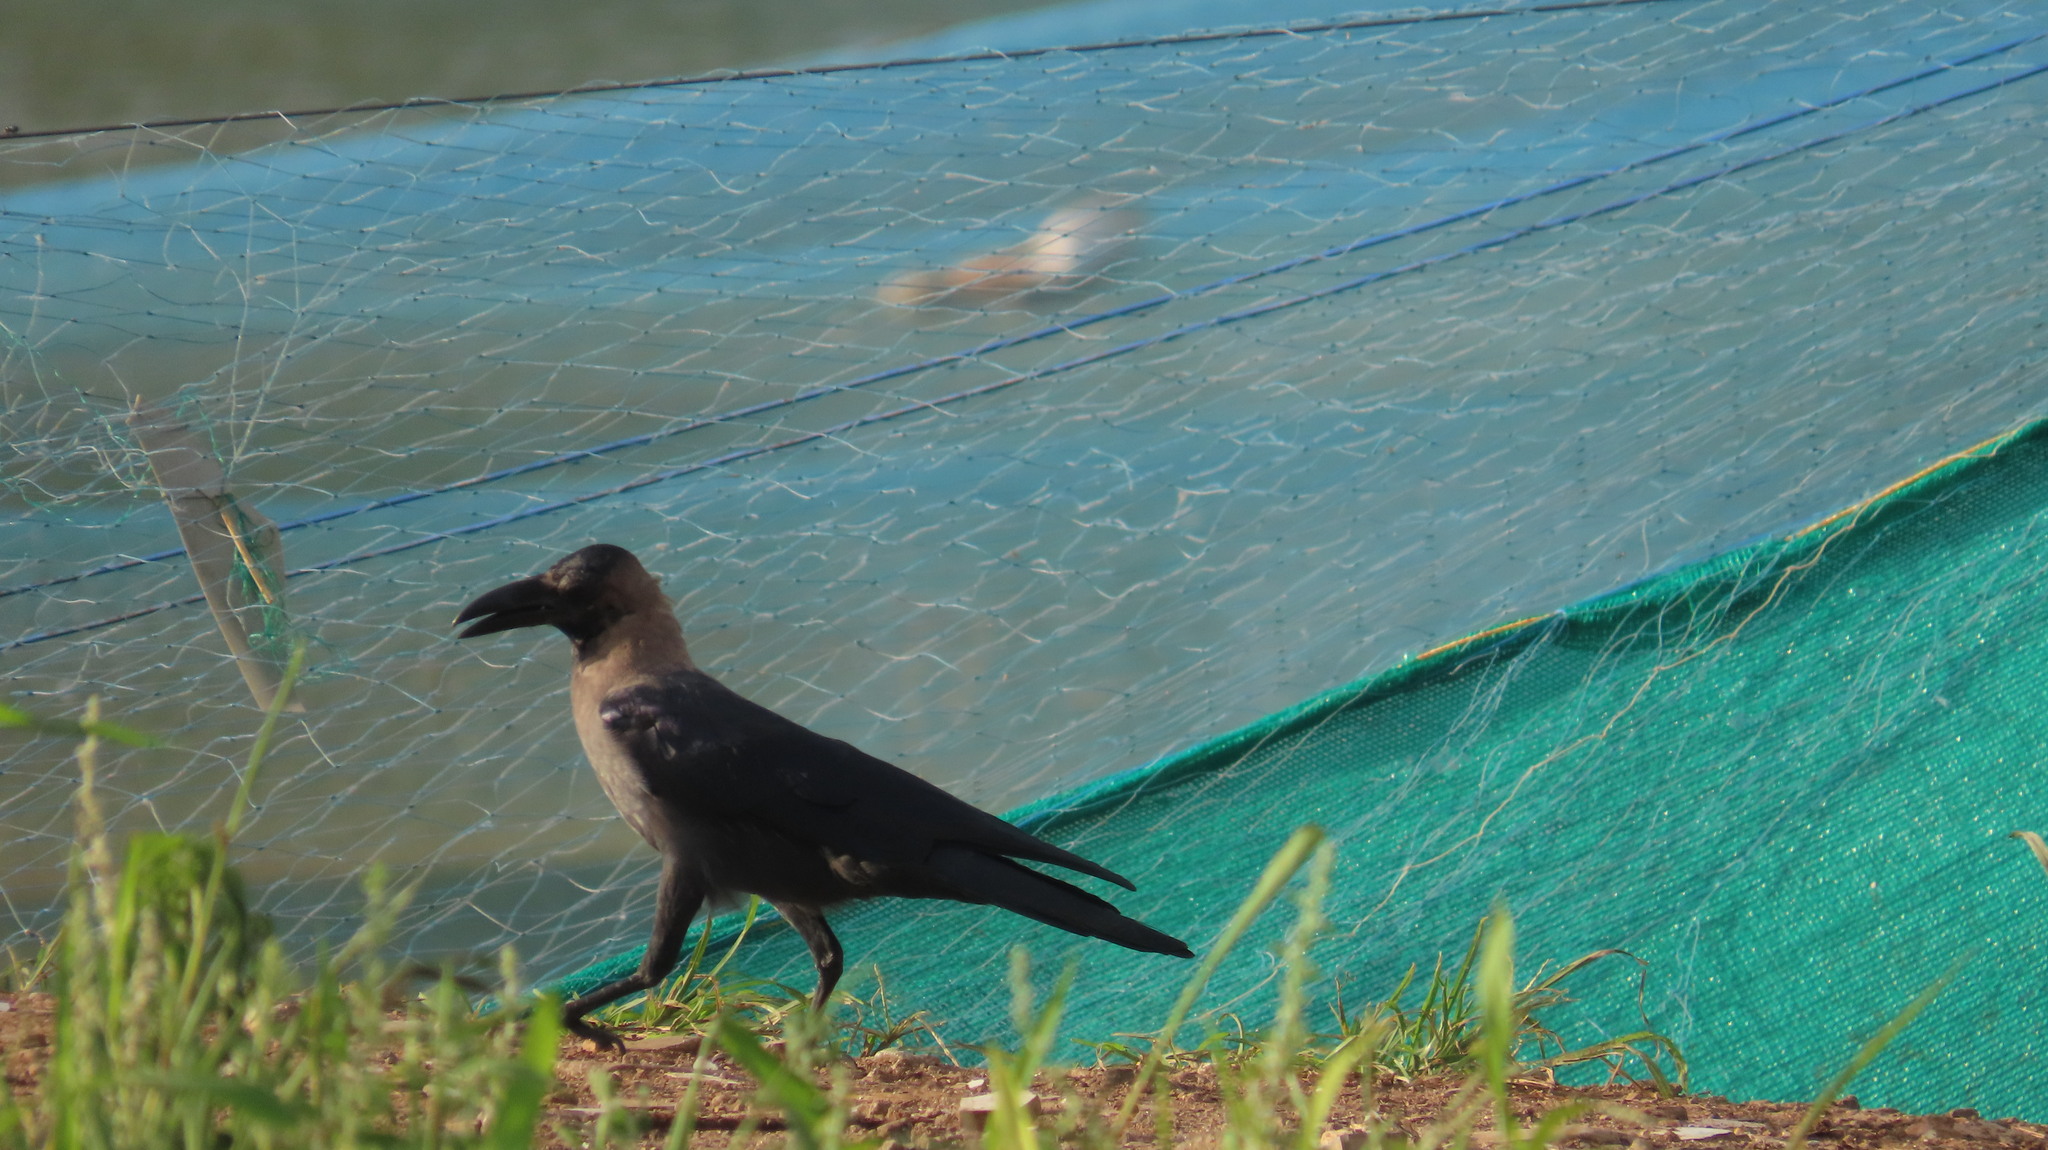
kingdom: Animalia
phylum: Chordata
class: Aves
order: Passeriformes
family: Corvidae
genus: Corvus
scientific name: Corvus splendens
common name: House crow
